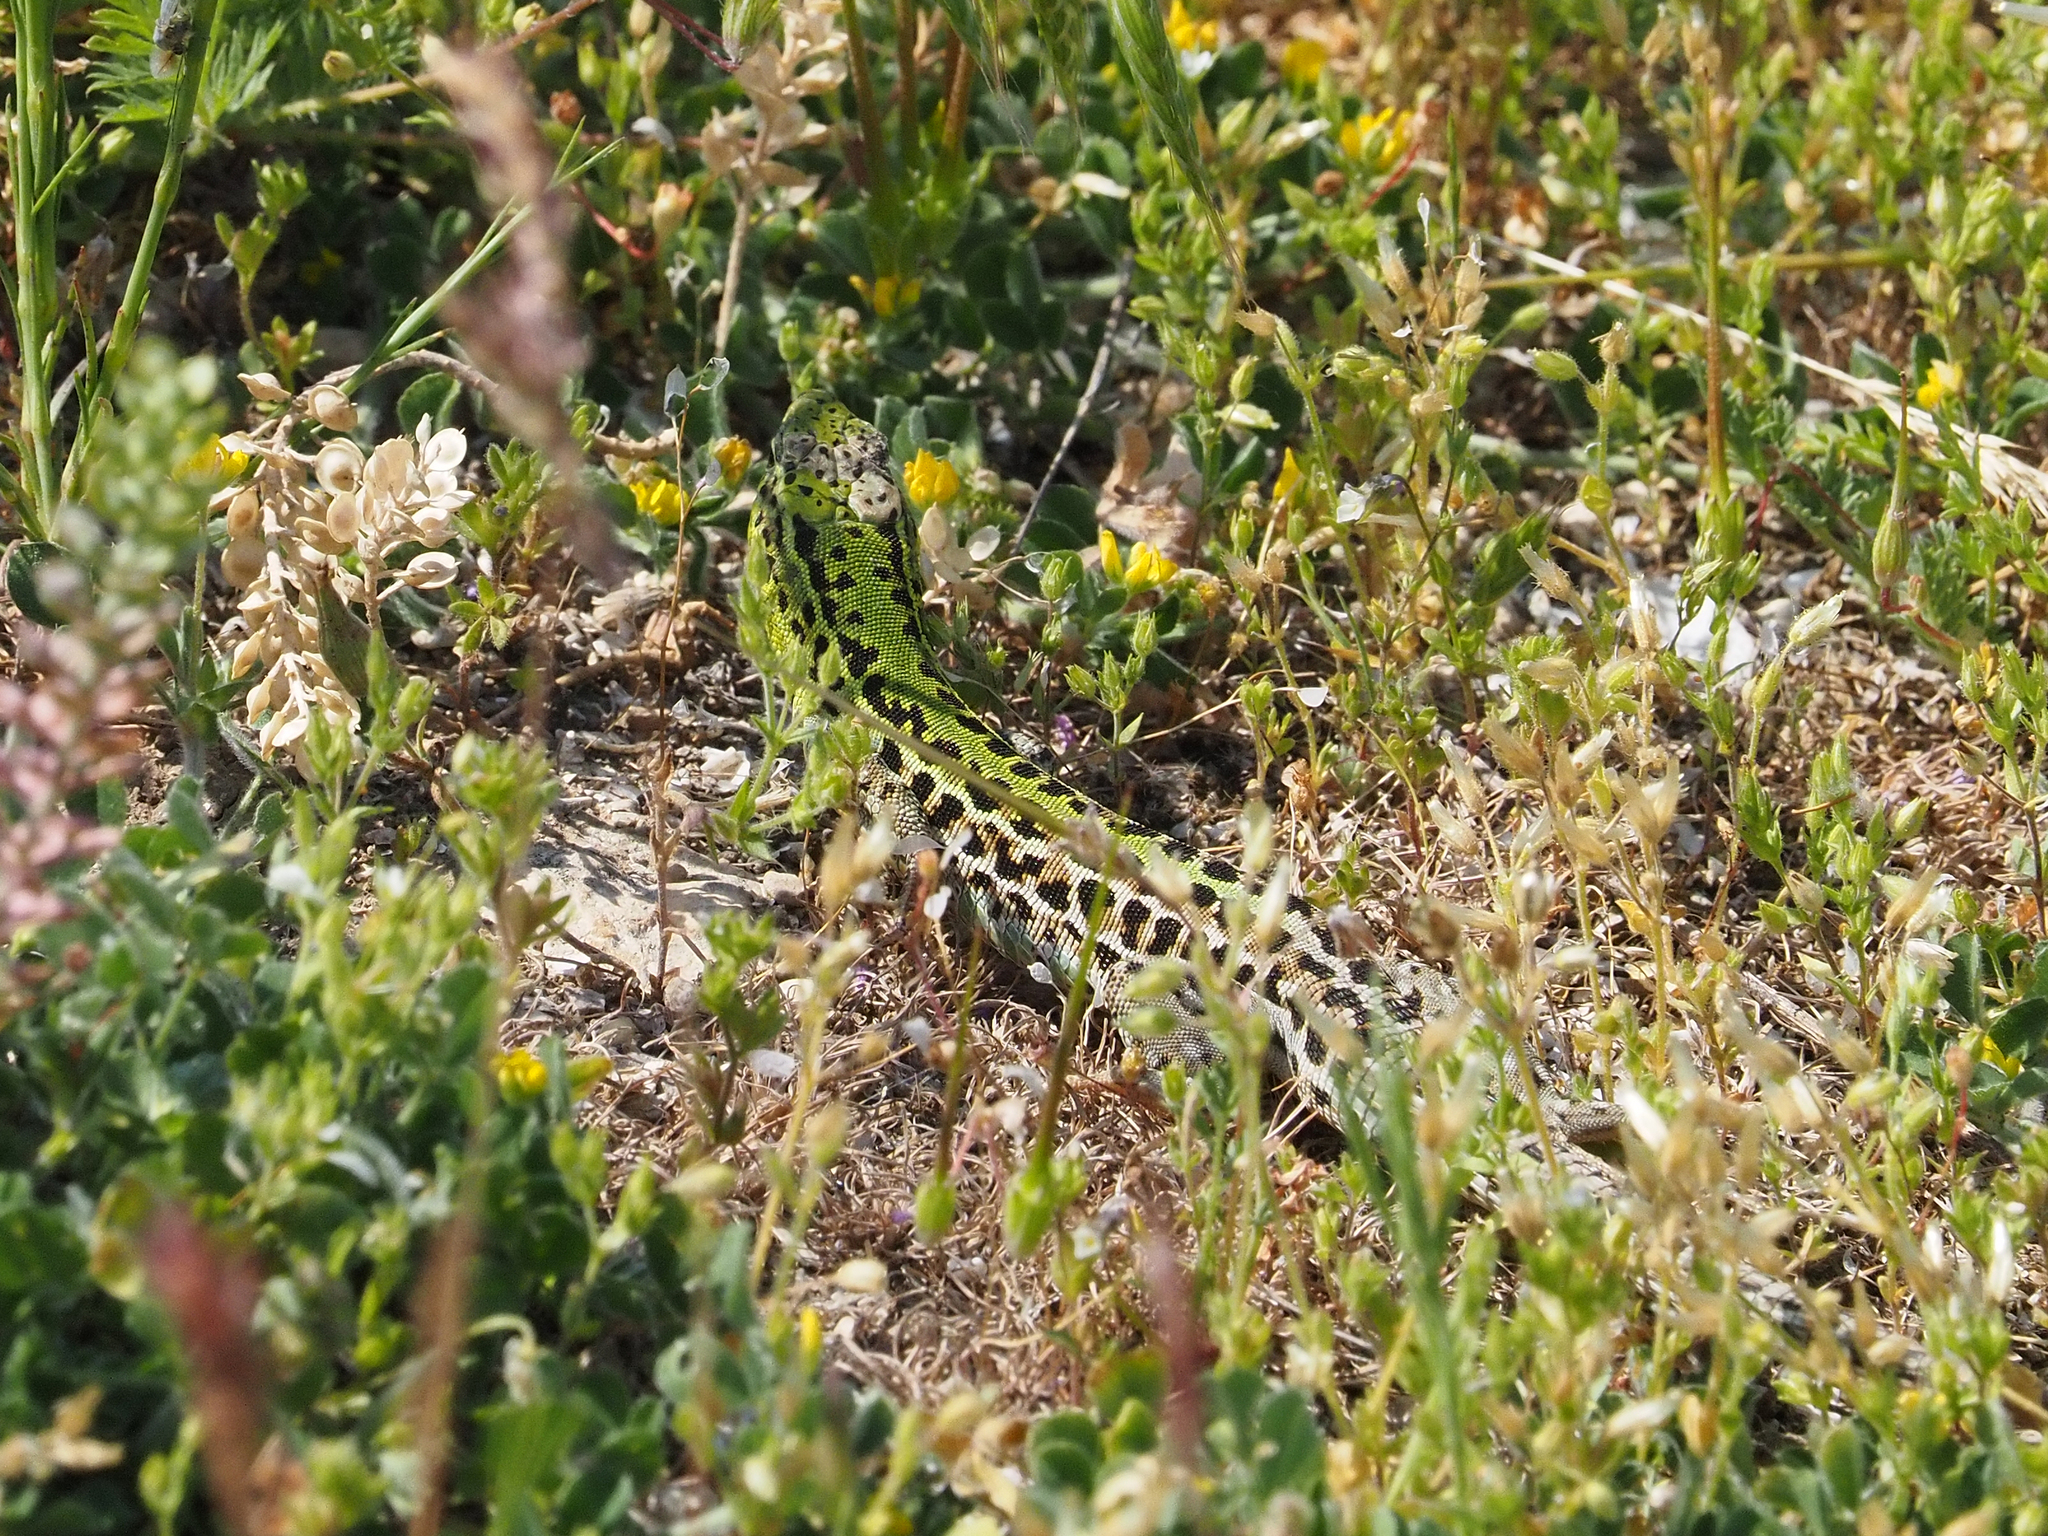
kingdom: Animalia
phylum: Chordata
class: Squamata
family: Lacertidae
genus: Podarcis
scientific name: Podarcis tauricus
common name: Balkan wall lizard
